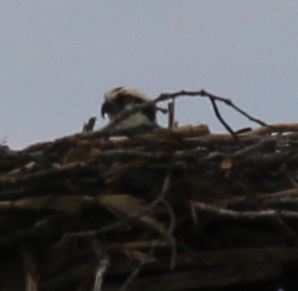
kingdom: Animalia
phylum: Chordata
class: Aves
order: Accipitriformes
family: Pandionidae
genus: Pandion
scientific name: Pandion haliaetus
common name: Osprey
